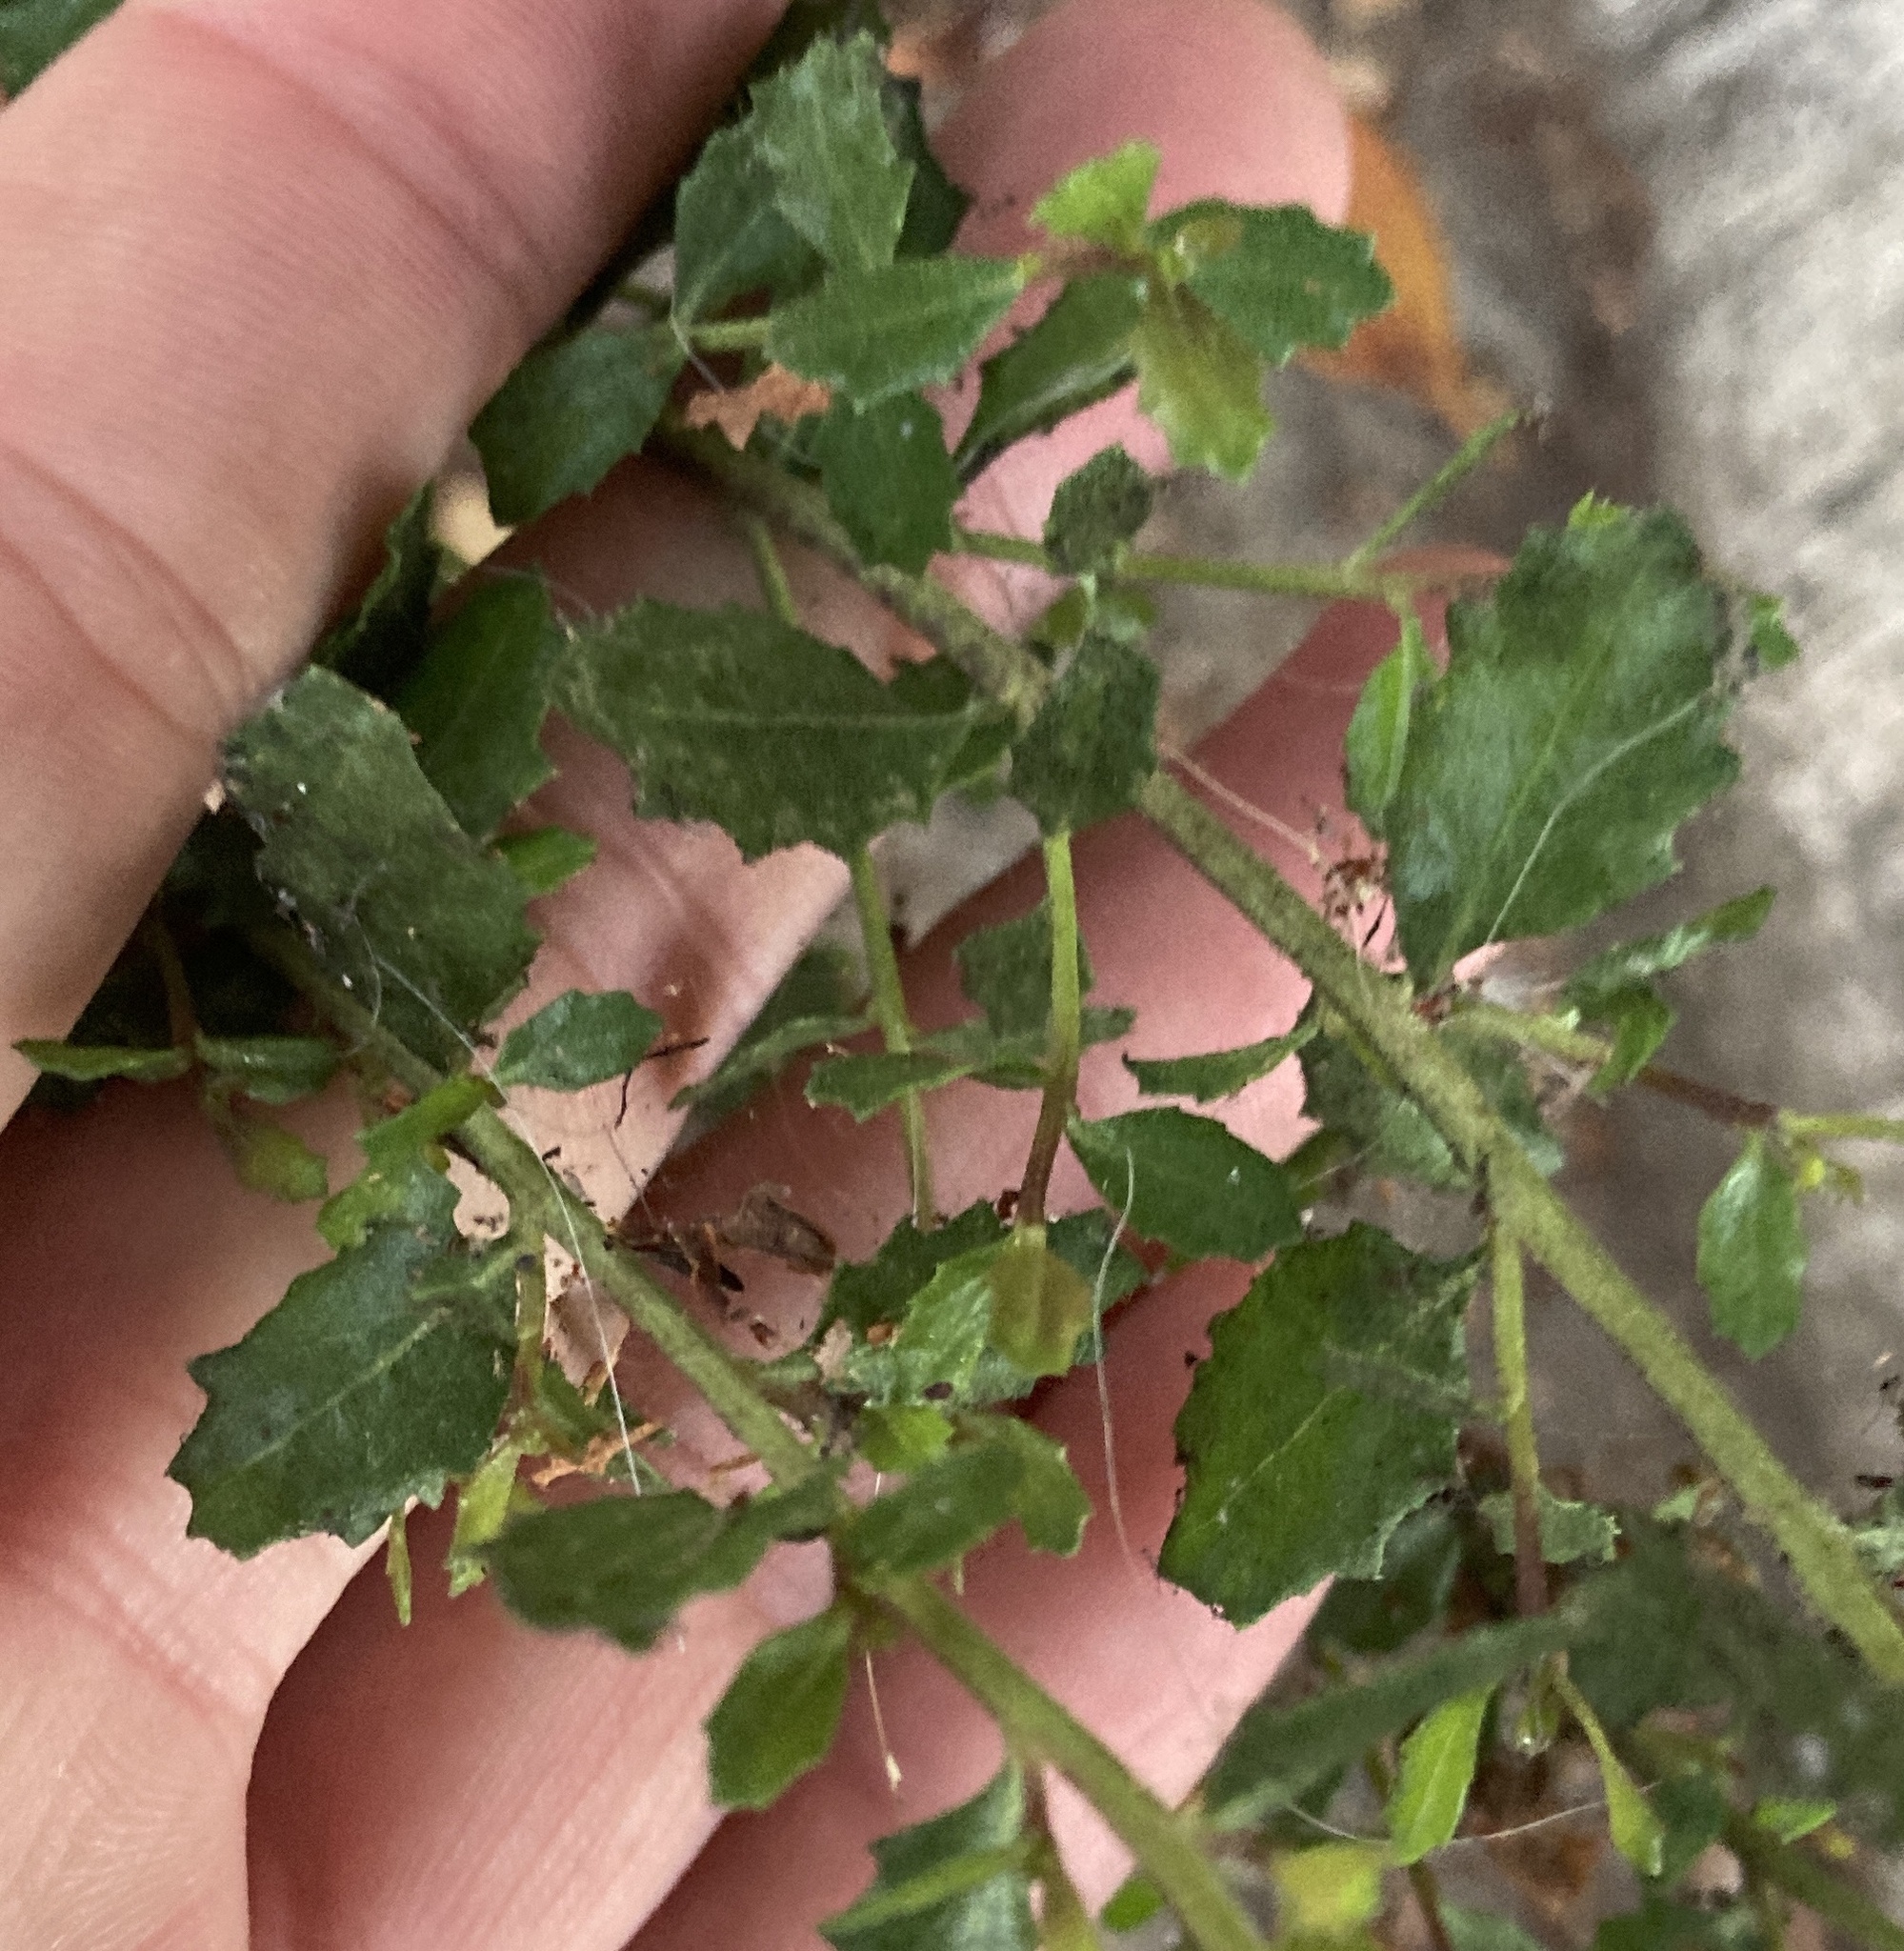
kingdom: Plantae
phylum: Tracheophyta
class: Magnoliopsida
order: Asterales
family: Asteraceae
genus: Baccharis
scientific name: Baccharis pilularis
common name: Coyotebrush
